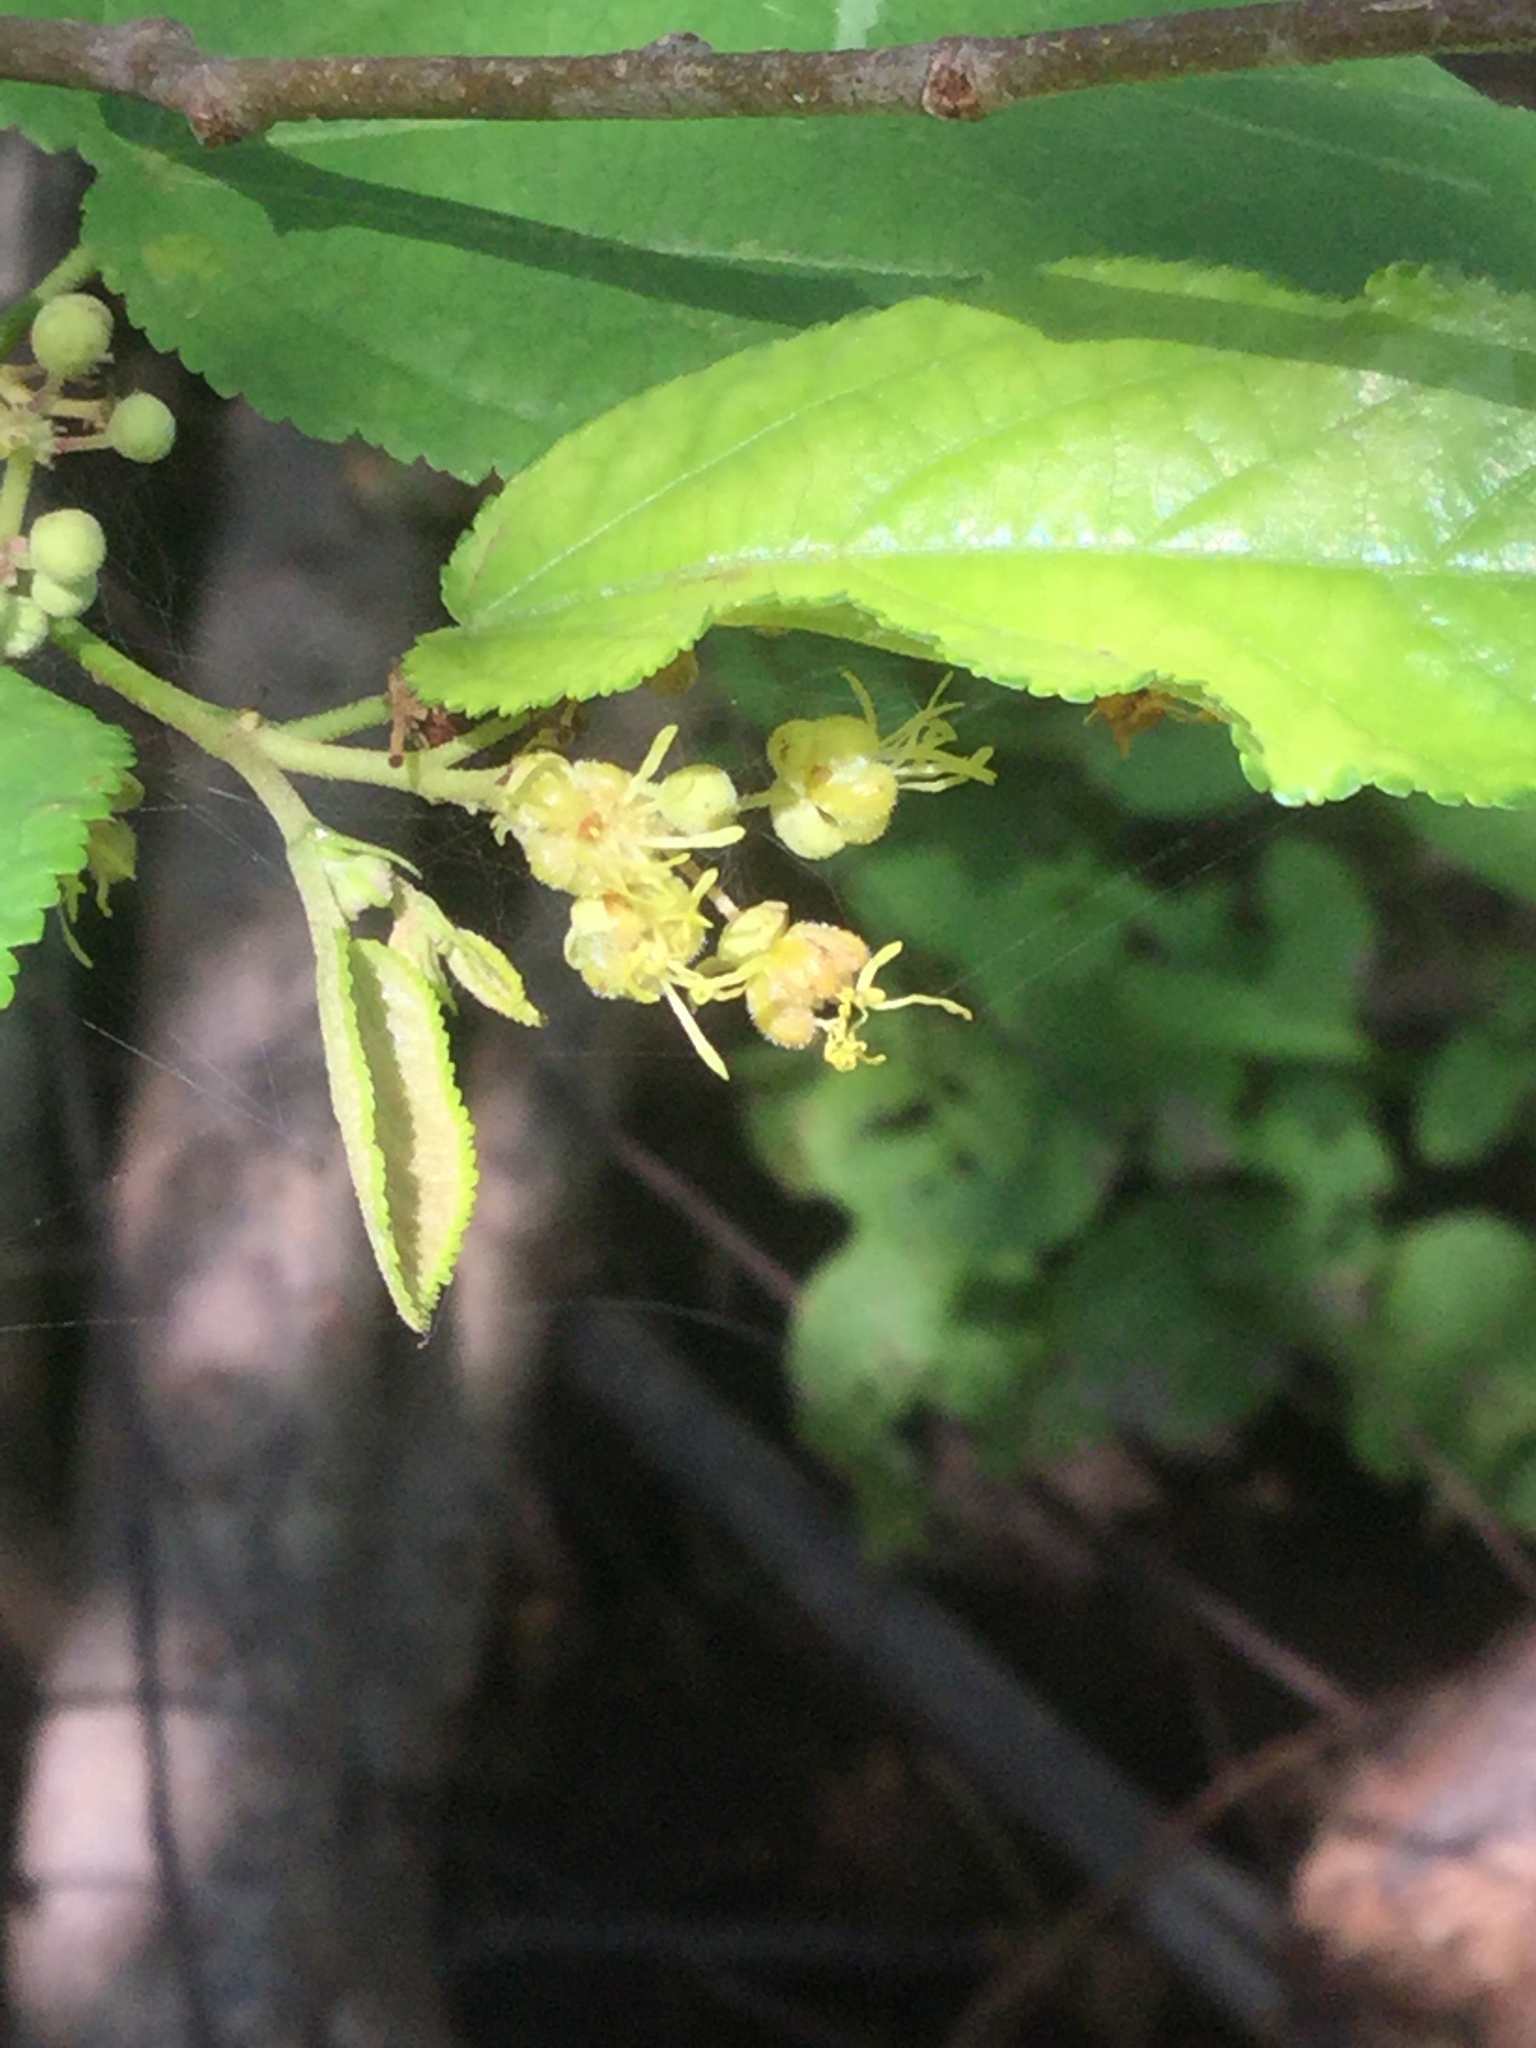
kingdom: Plantae
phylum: Tracheophyta
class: Magnoliopsida
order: Malvales
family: Malvaceae
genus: Guazuma
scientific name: Guazuma ulmifolia
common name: Bastard-cedar
